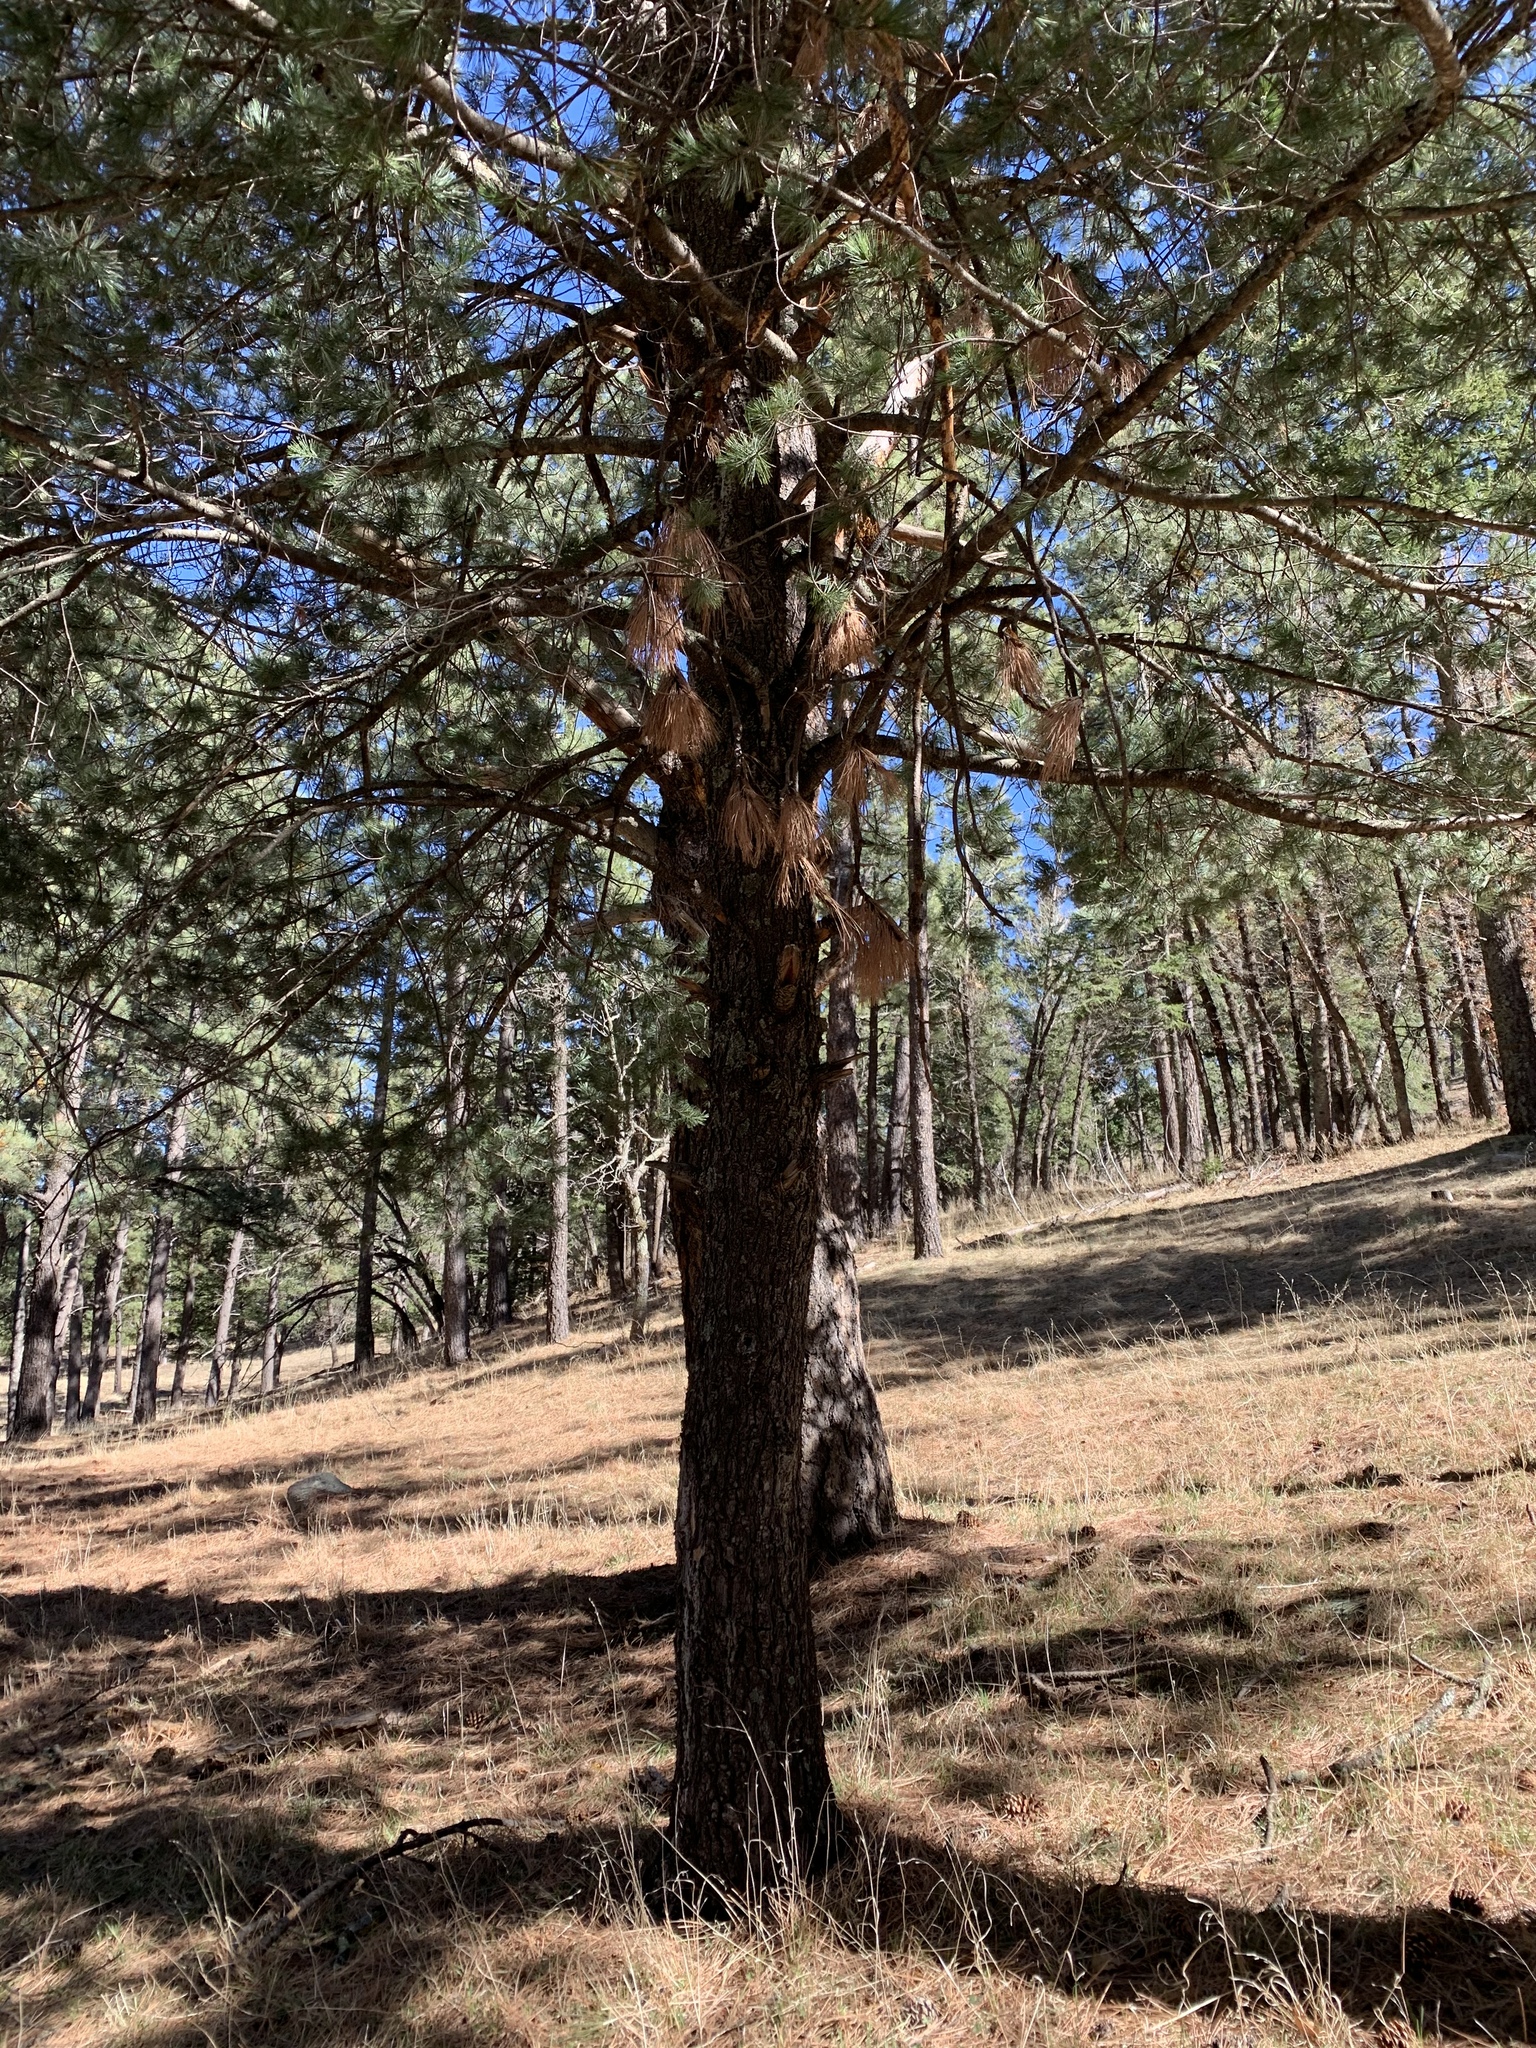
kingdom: Plantae
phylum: Tracheophyta
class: Pinopsida
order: Pinales
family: Pinaceae
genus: Pinus
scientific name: Pinus strobiformis
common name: Southwestern white pine
